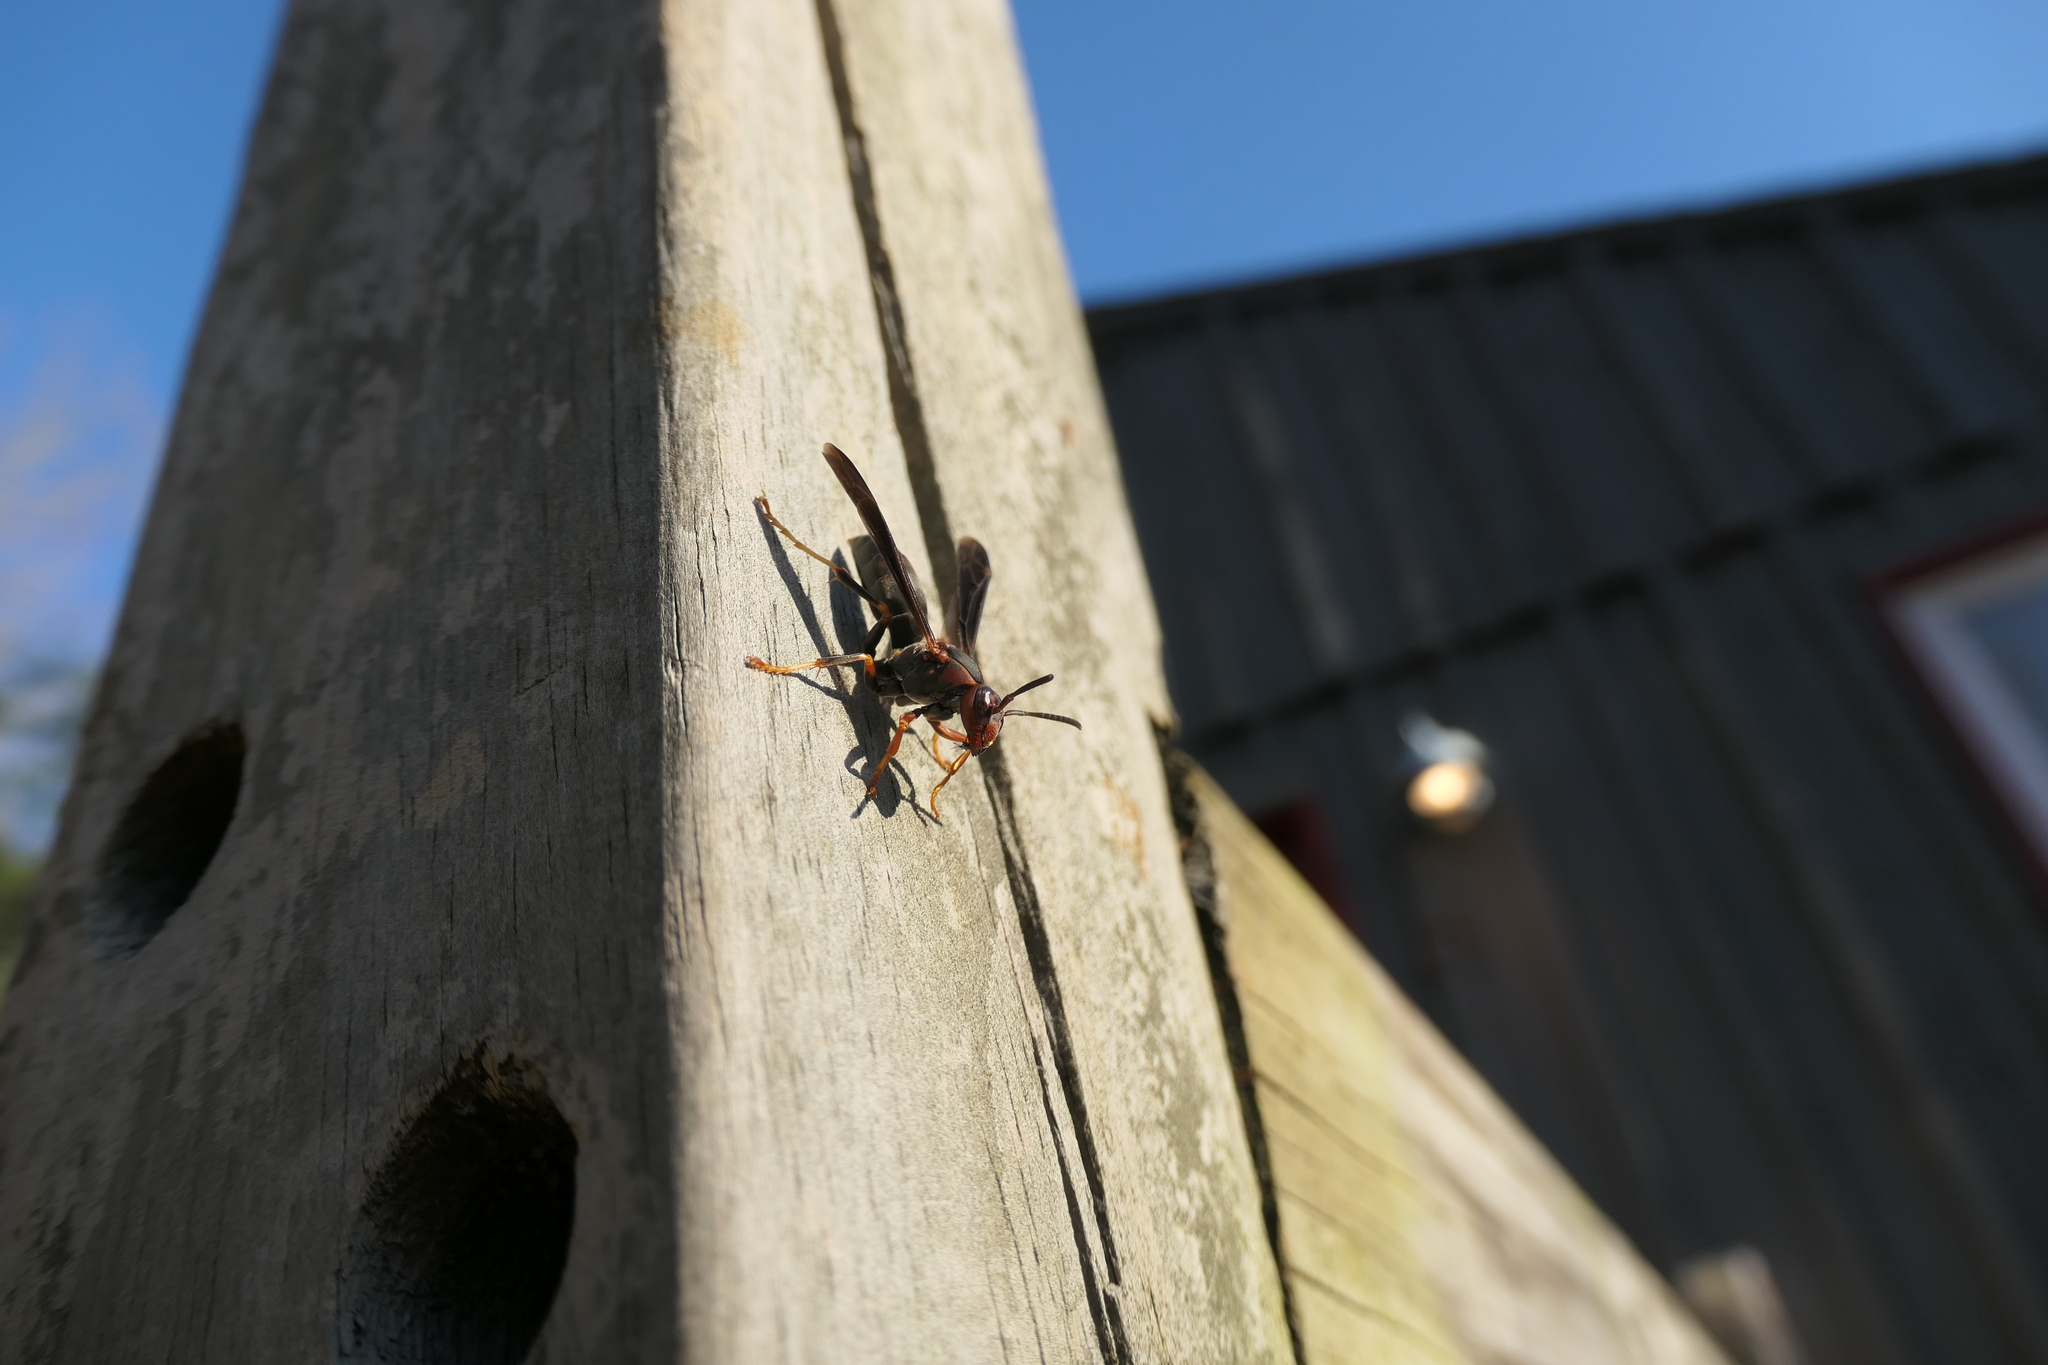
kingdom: Animalia
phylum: Arthropoda
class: Insecta
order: Hymenoptera
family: Eumenidae
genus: Polistes
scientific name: Polistes metricus
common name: Metric paper wasp
